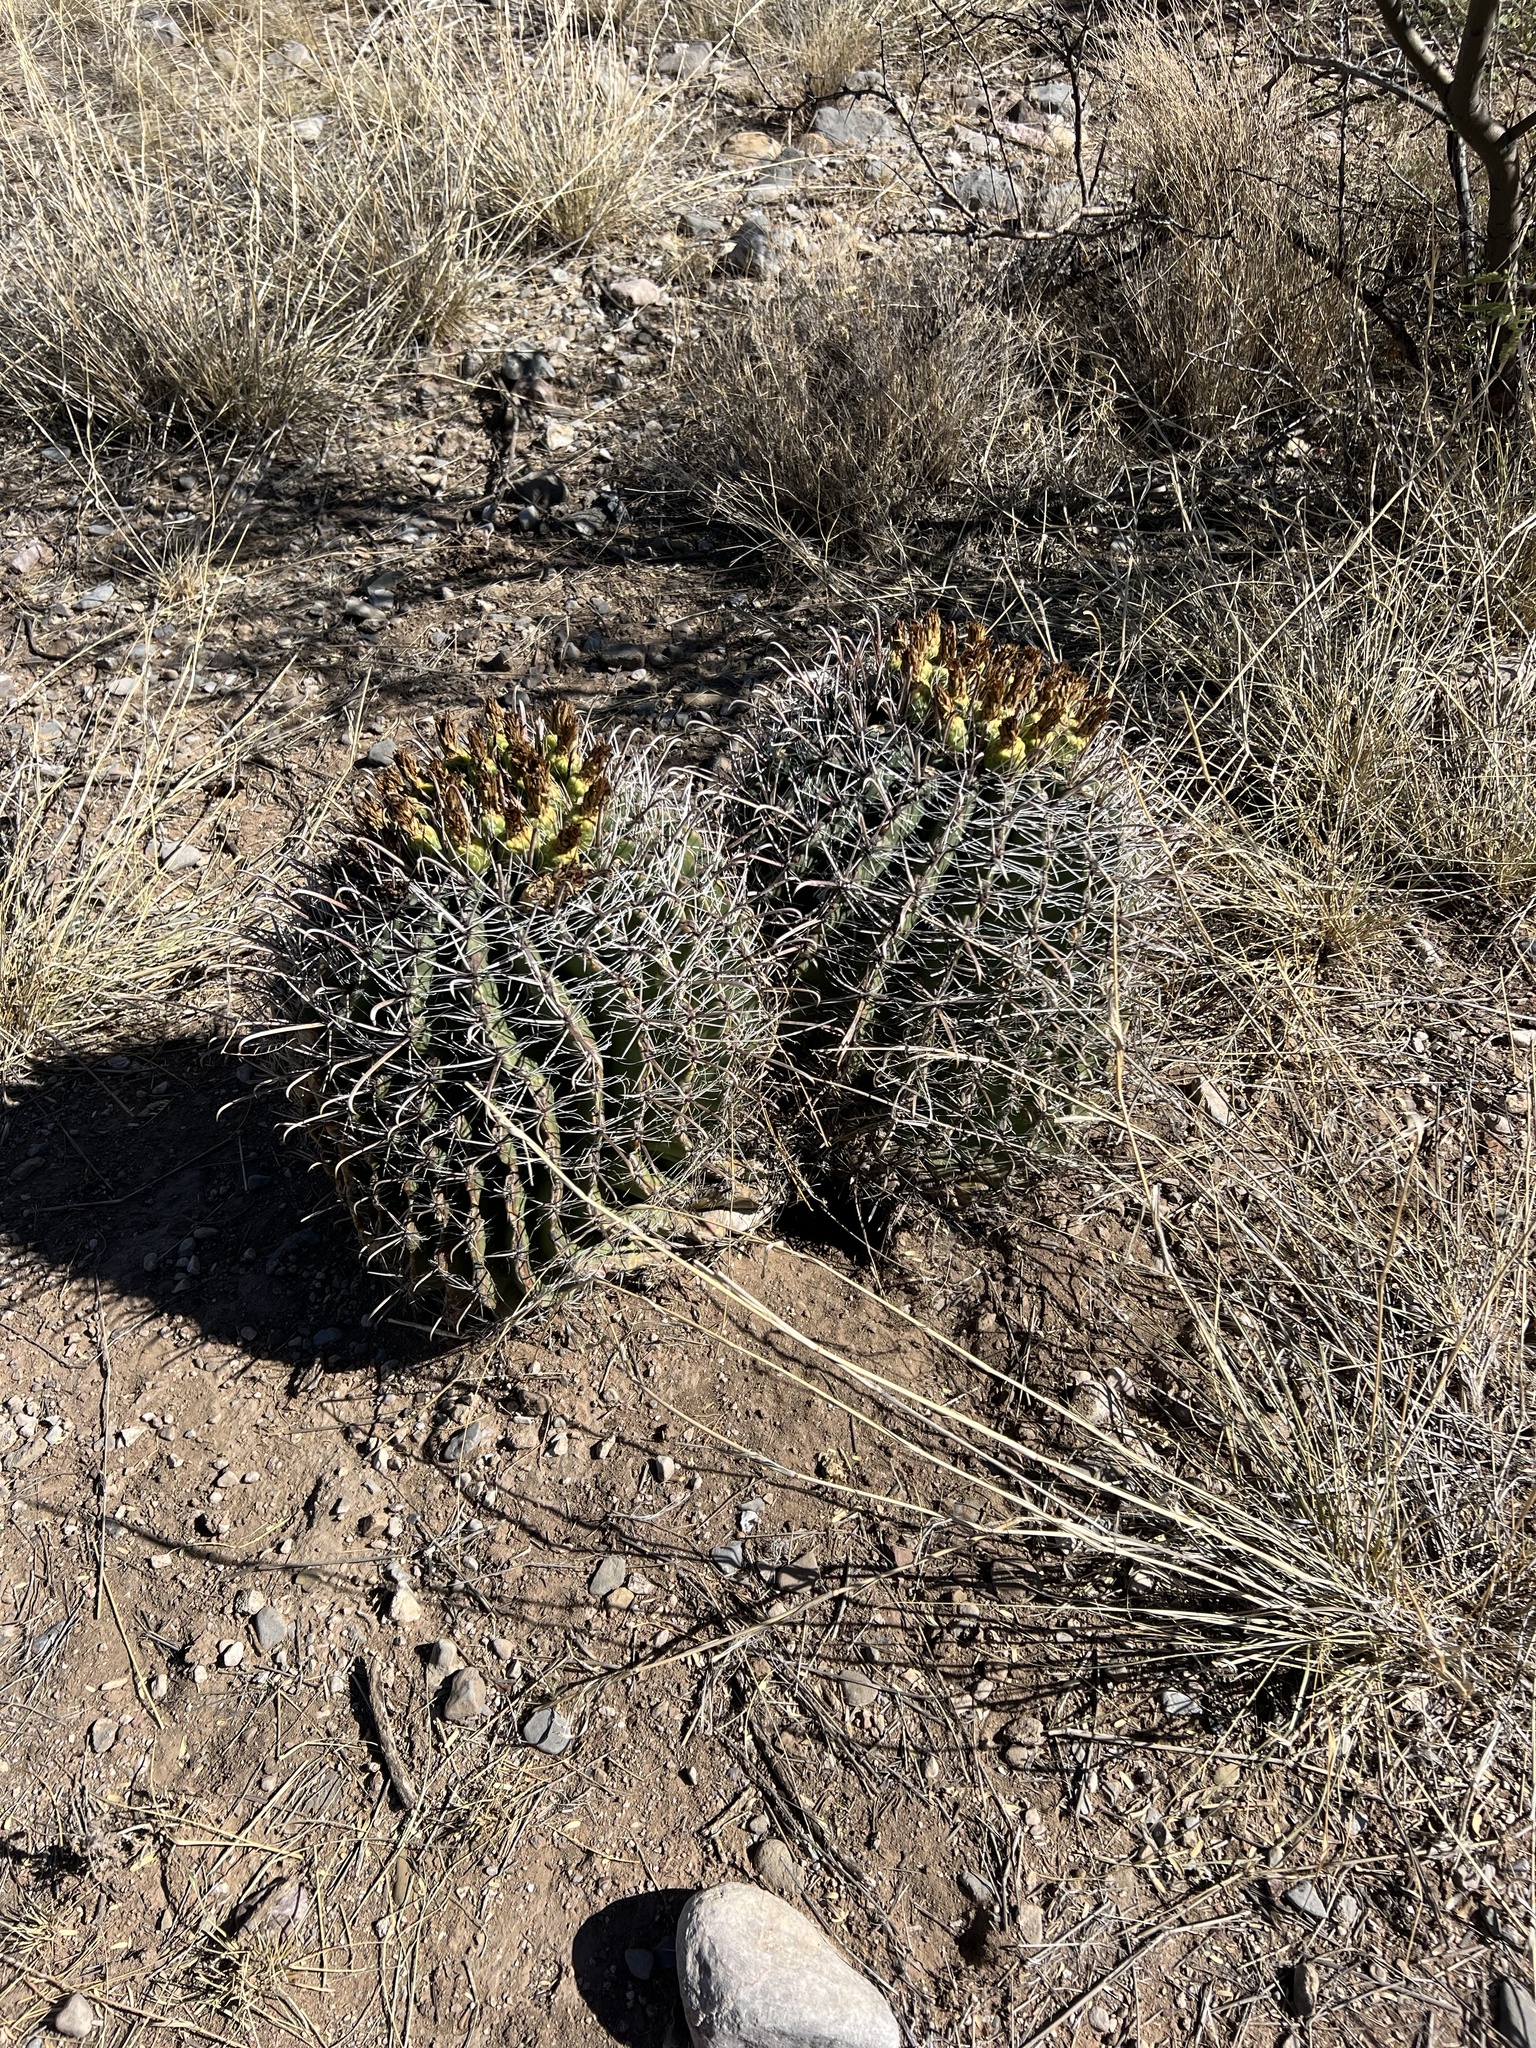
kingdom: Plantae
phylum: Tracheophyta
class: Magnoliopsida
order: Caryophyllales
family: Cactaceae
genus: Ferocactus
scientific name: Ferocactus wislizeni
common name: Candy barrel cactus
